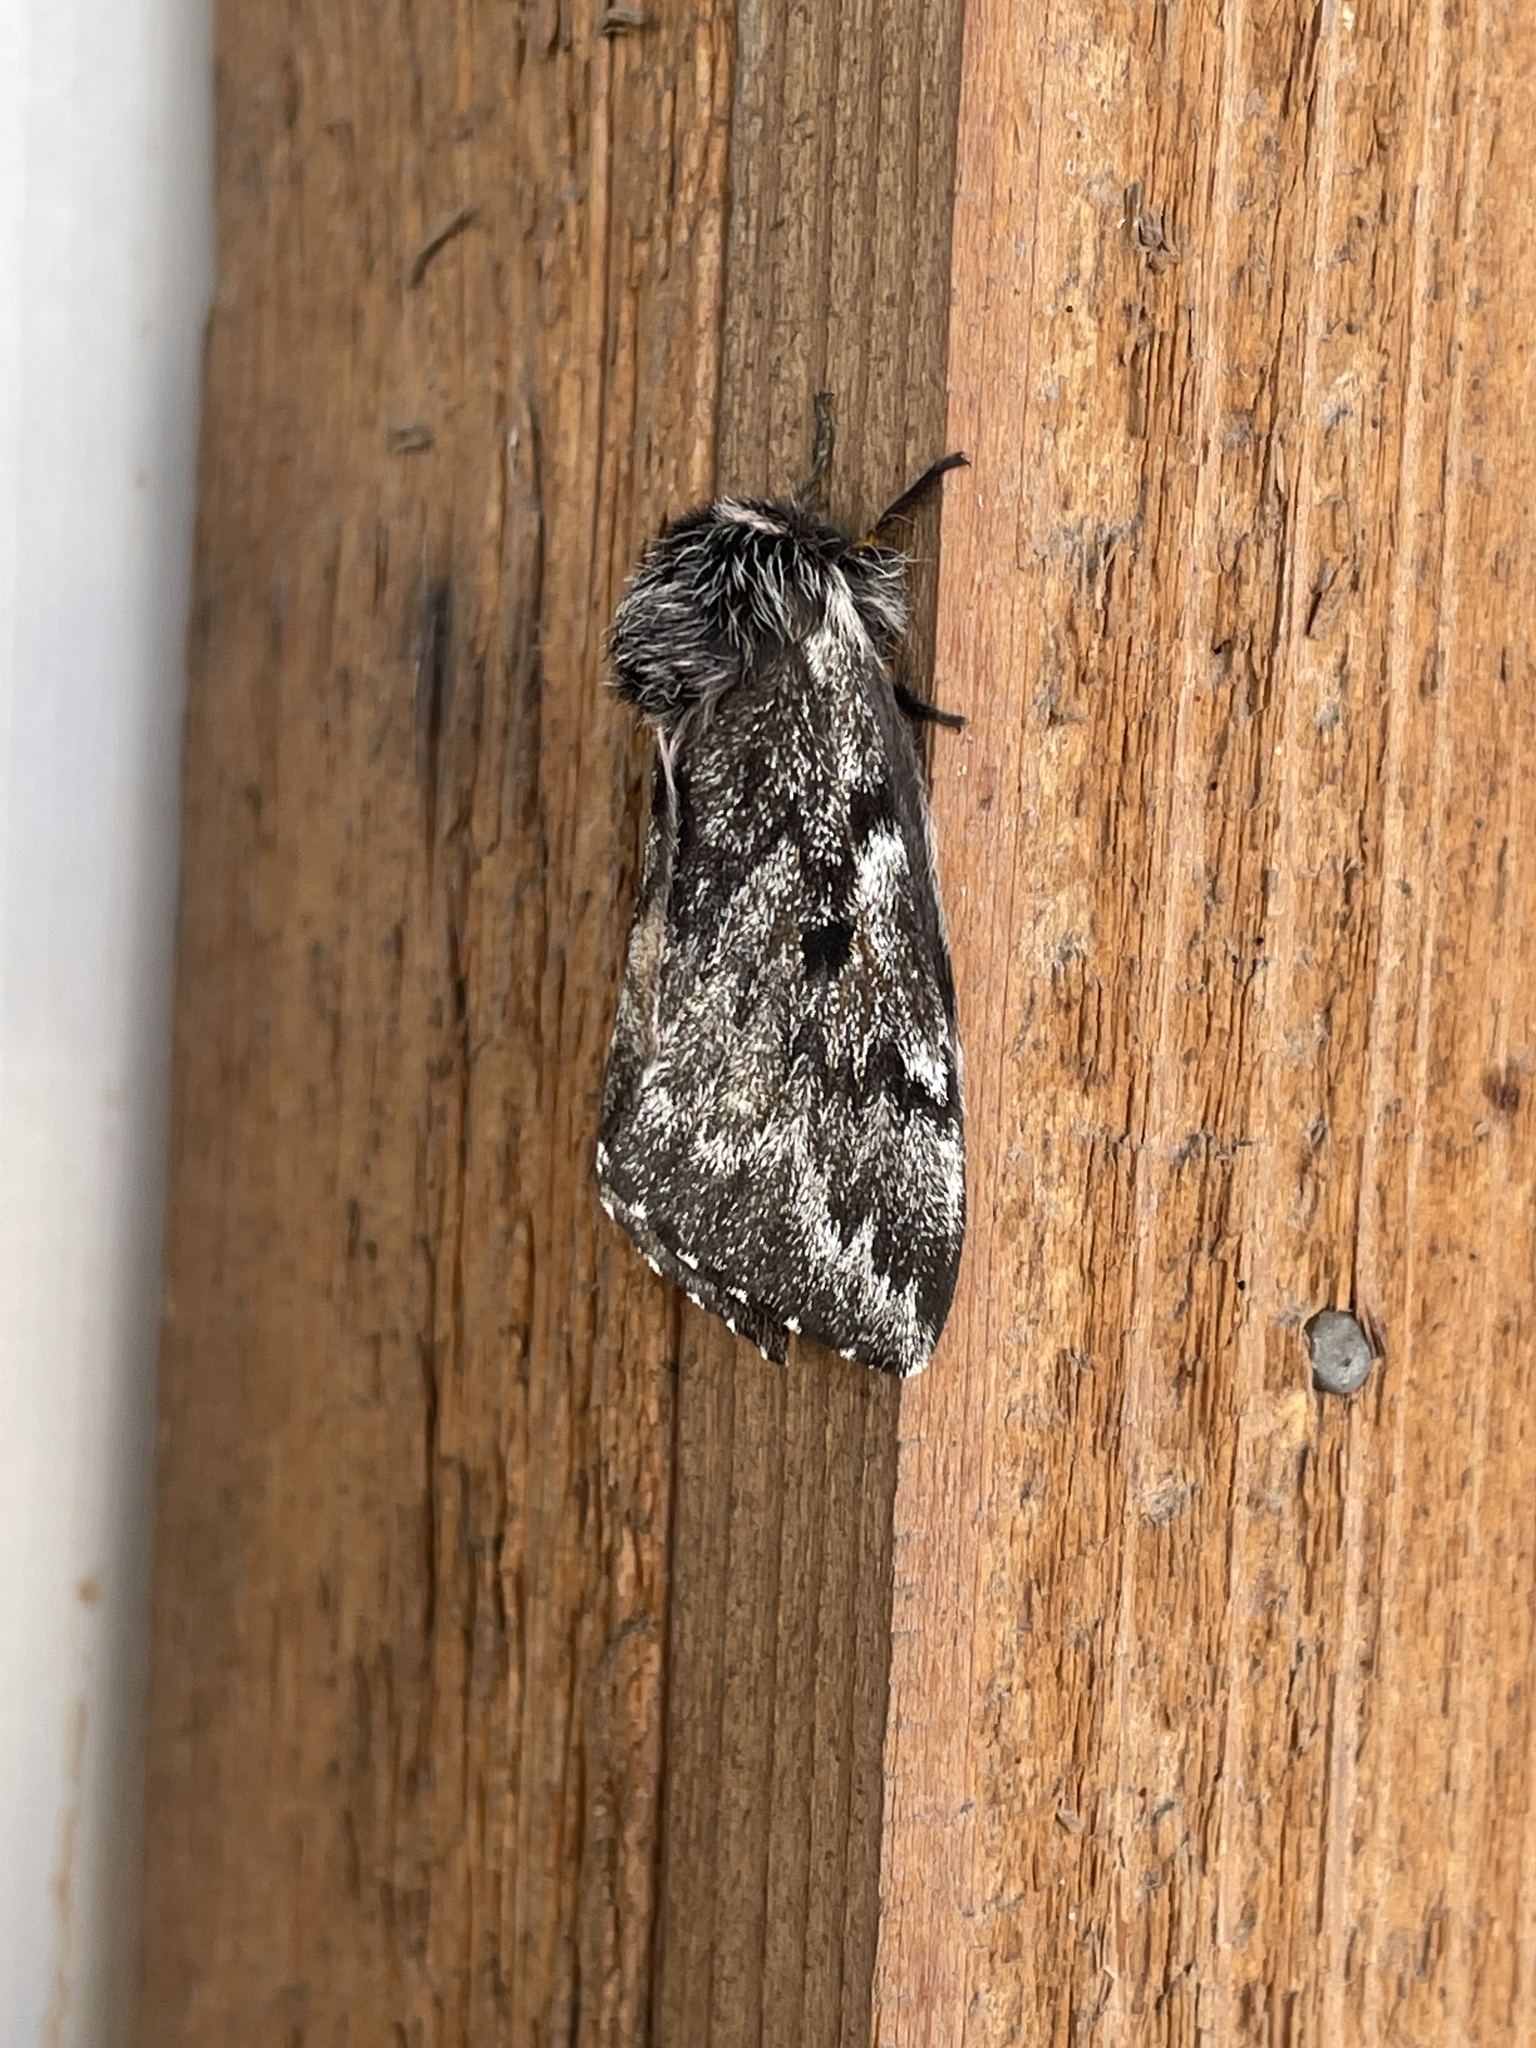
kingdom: Animalia
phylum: Arthropoda
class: Insecta
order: Lepidoptera
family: Saturniidae
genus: Coloradia
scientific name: Coloradia pandora
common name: Pandora pinemoth
